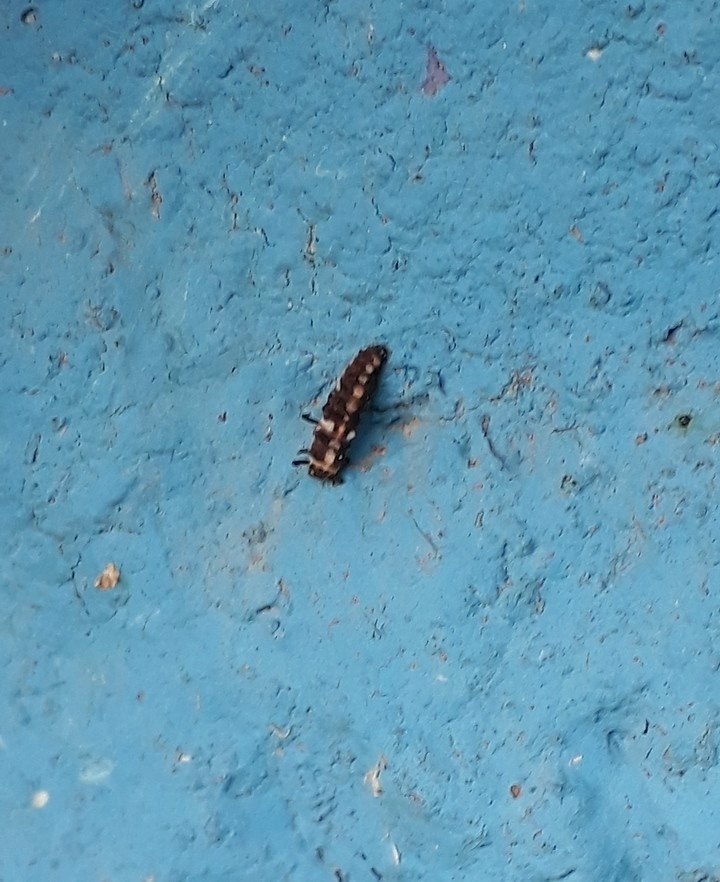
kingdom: Animalia
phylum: Arthropoda
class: Insecta
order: Coleoptera
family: Coccinellidae
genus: Eriopis
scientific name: Eriopis connexa
